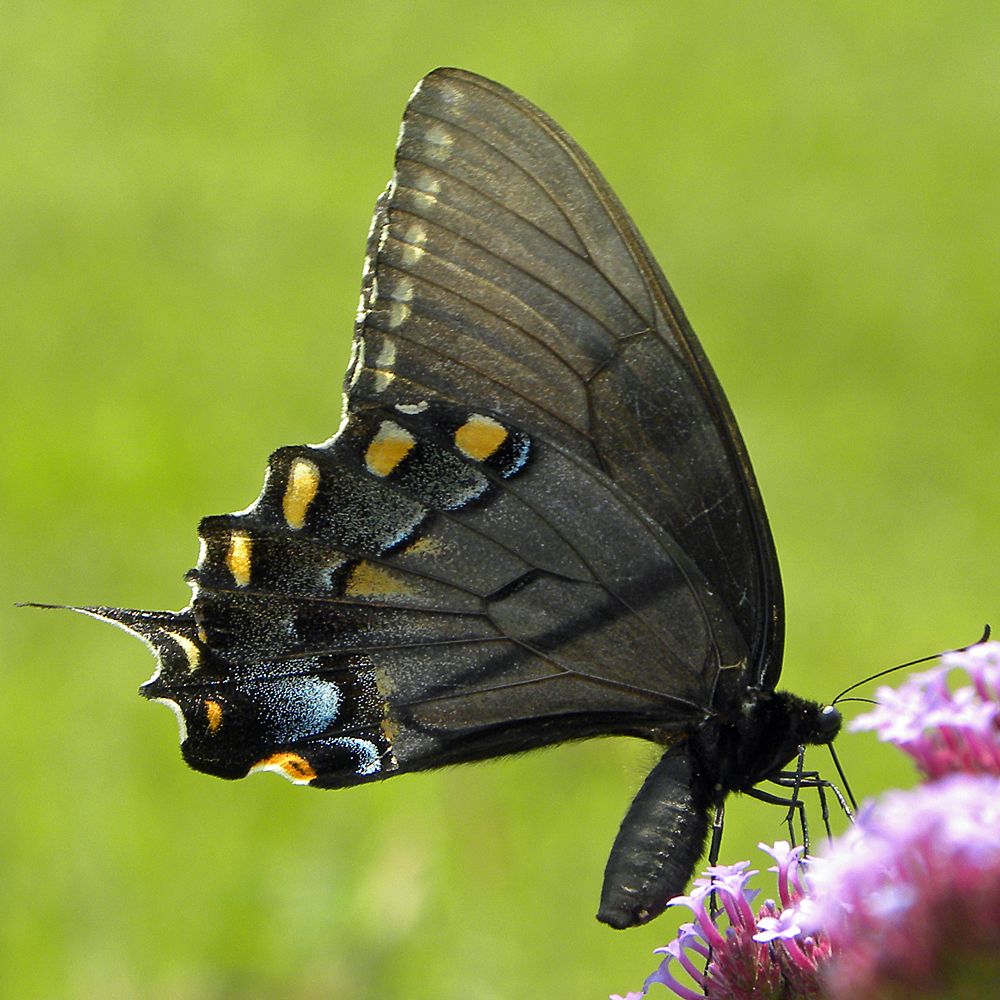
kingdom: Animalia
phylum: Arthropoda
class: Insecta
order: Lepidoptera
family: Papilionidae
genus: Papilio
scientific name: Papilio glaucus
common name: Tiger swallowtail
